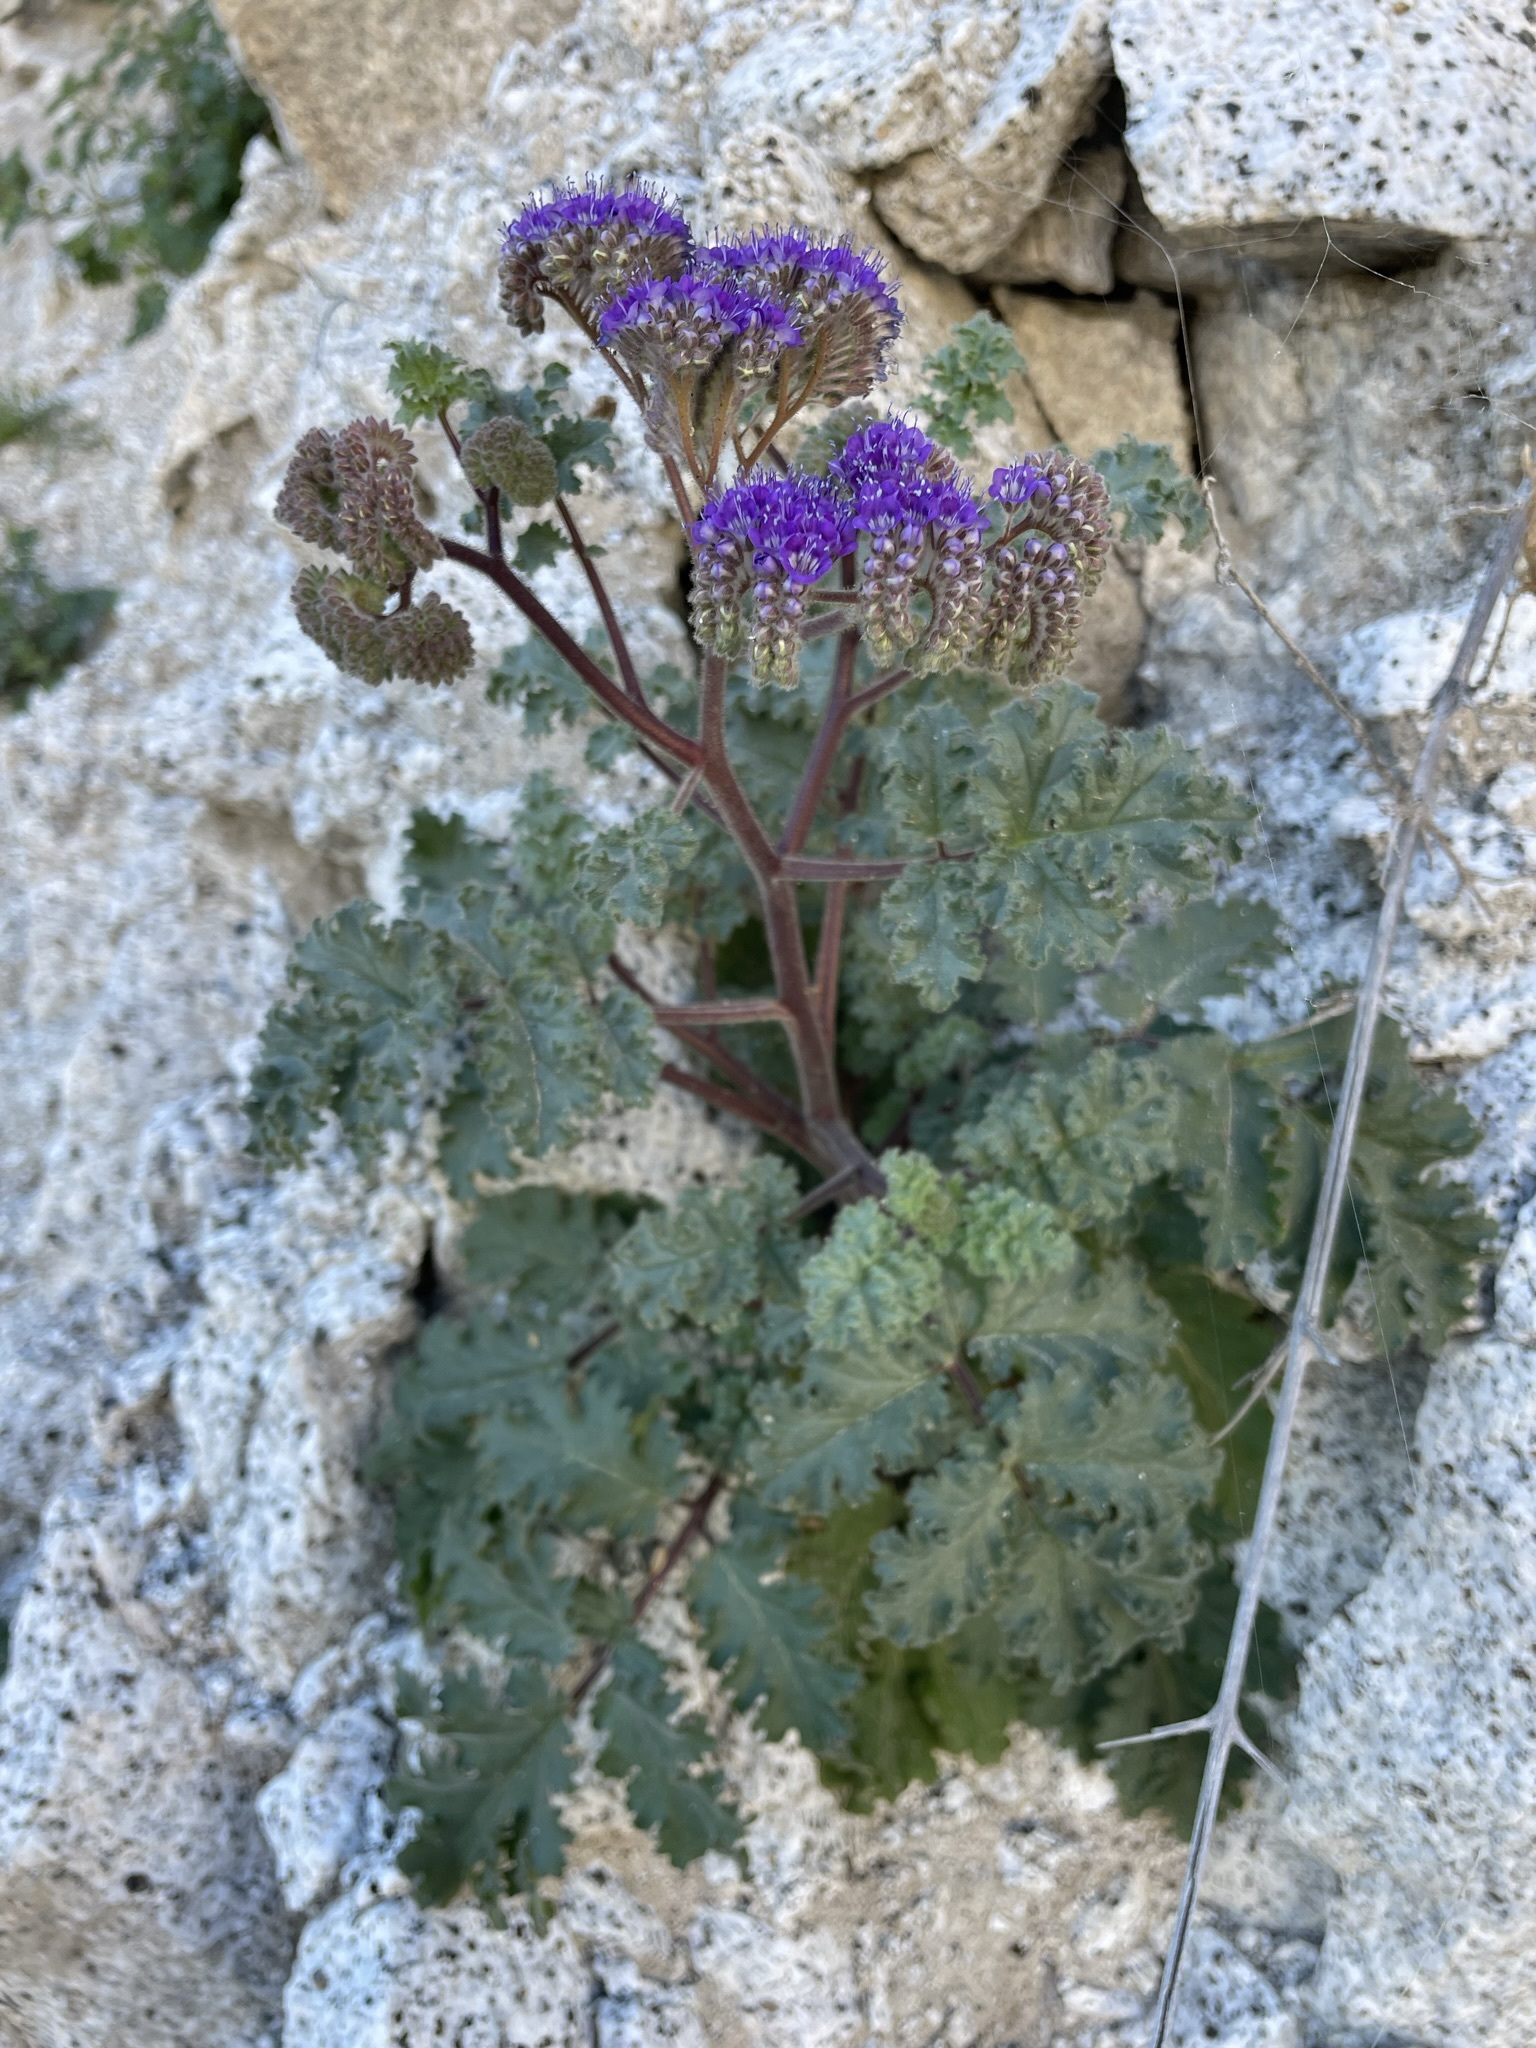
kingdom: Plantae
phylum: Tracheophyta
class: Magnoliopsida
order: Boraginales
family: Hydrophyllaceae
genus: Phacelia
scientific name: Phacelia pedicellata
